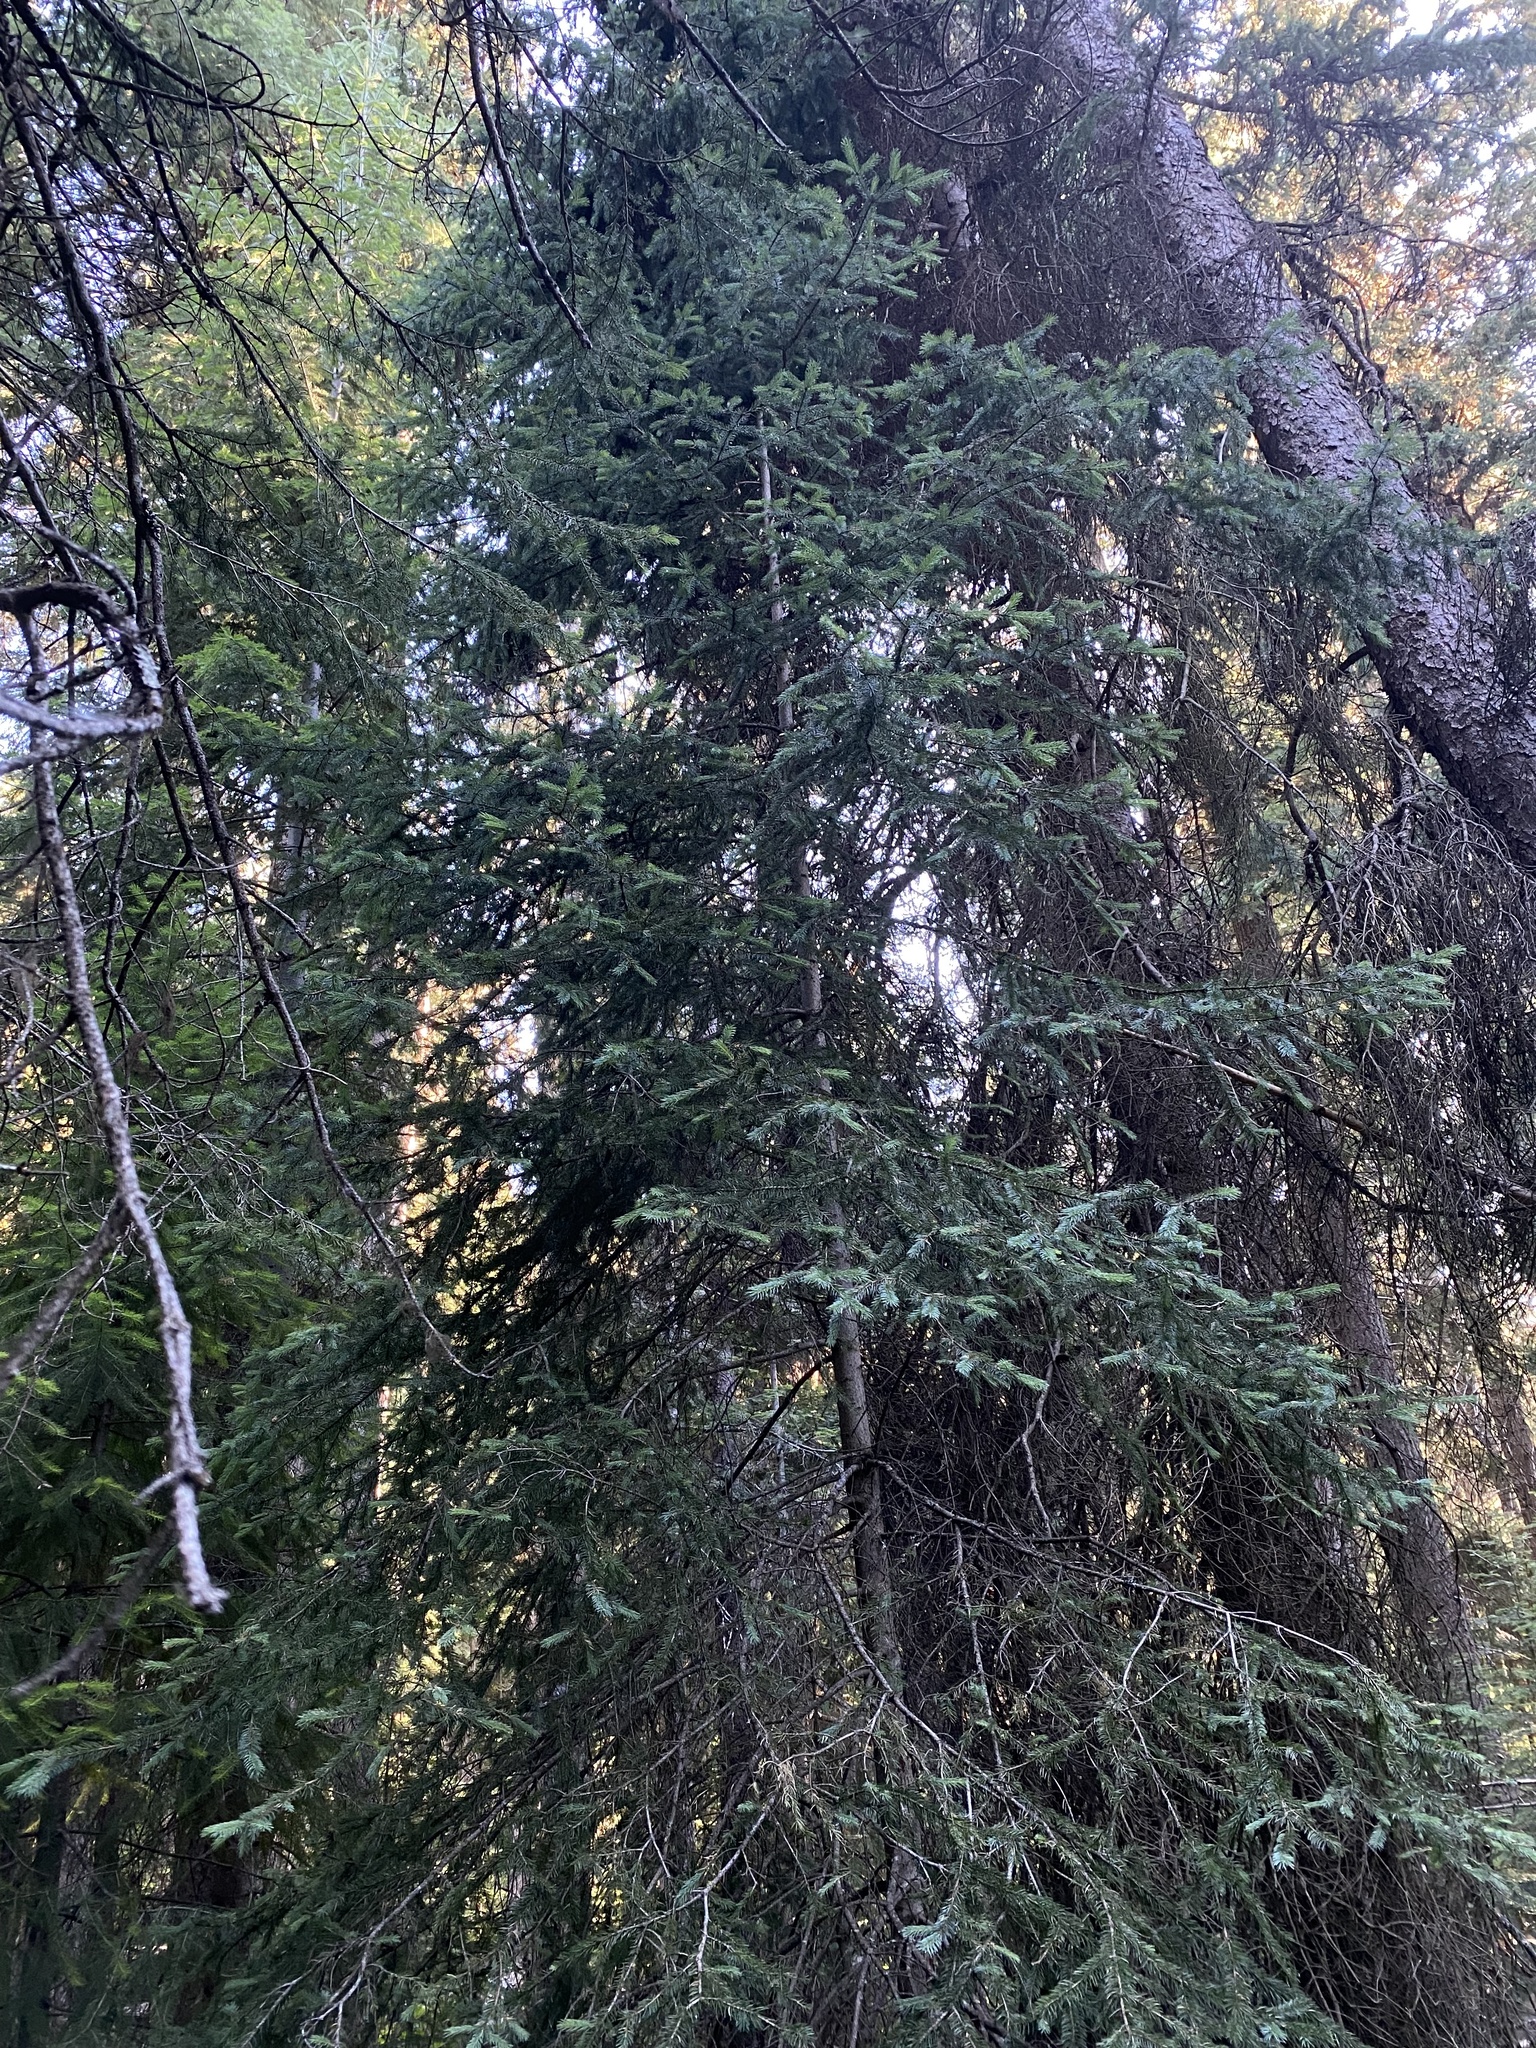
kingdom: Plantae
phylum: Tracheophyta
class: Pinopsida
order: Pinales
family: Pinaceae
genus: Picea
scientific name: Picea engelmannii
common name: Engelmann spruce
